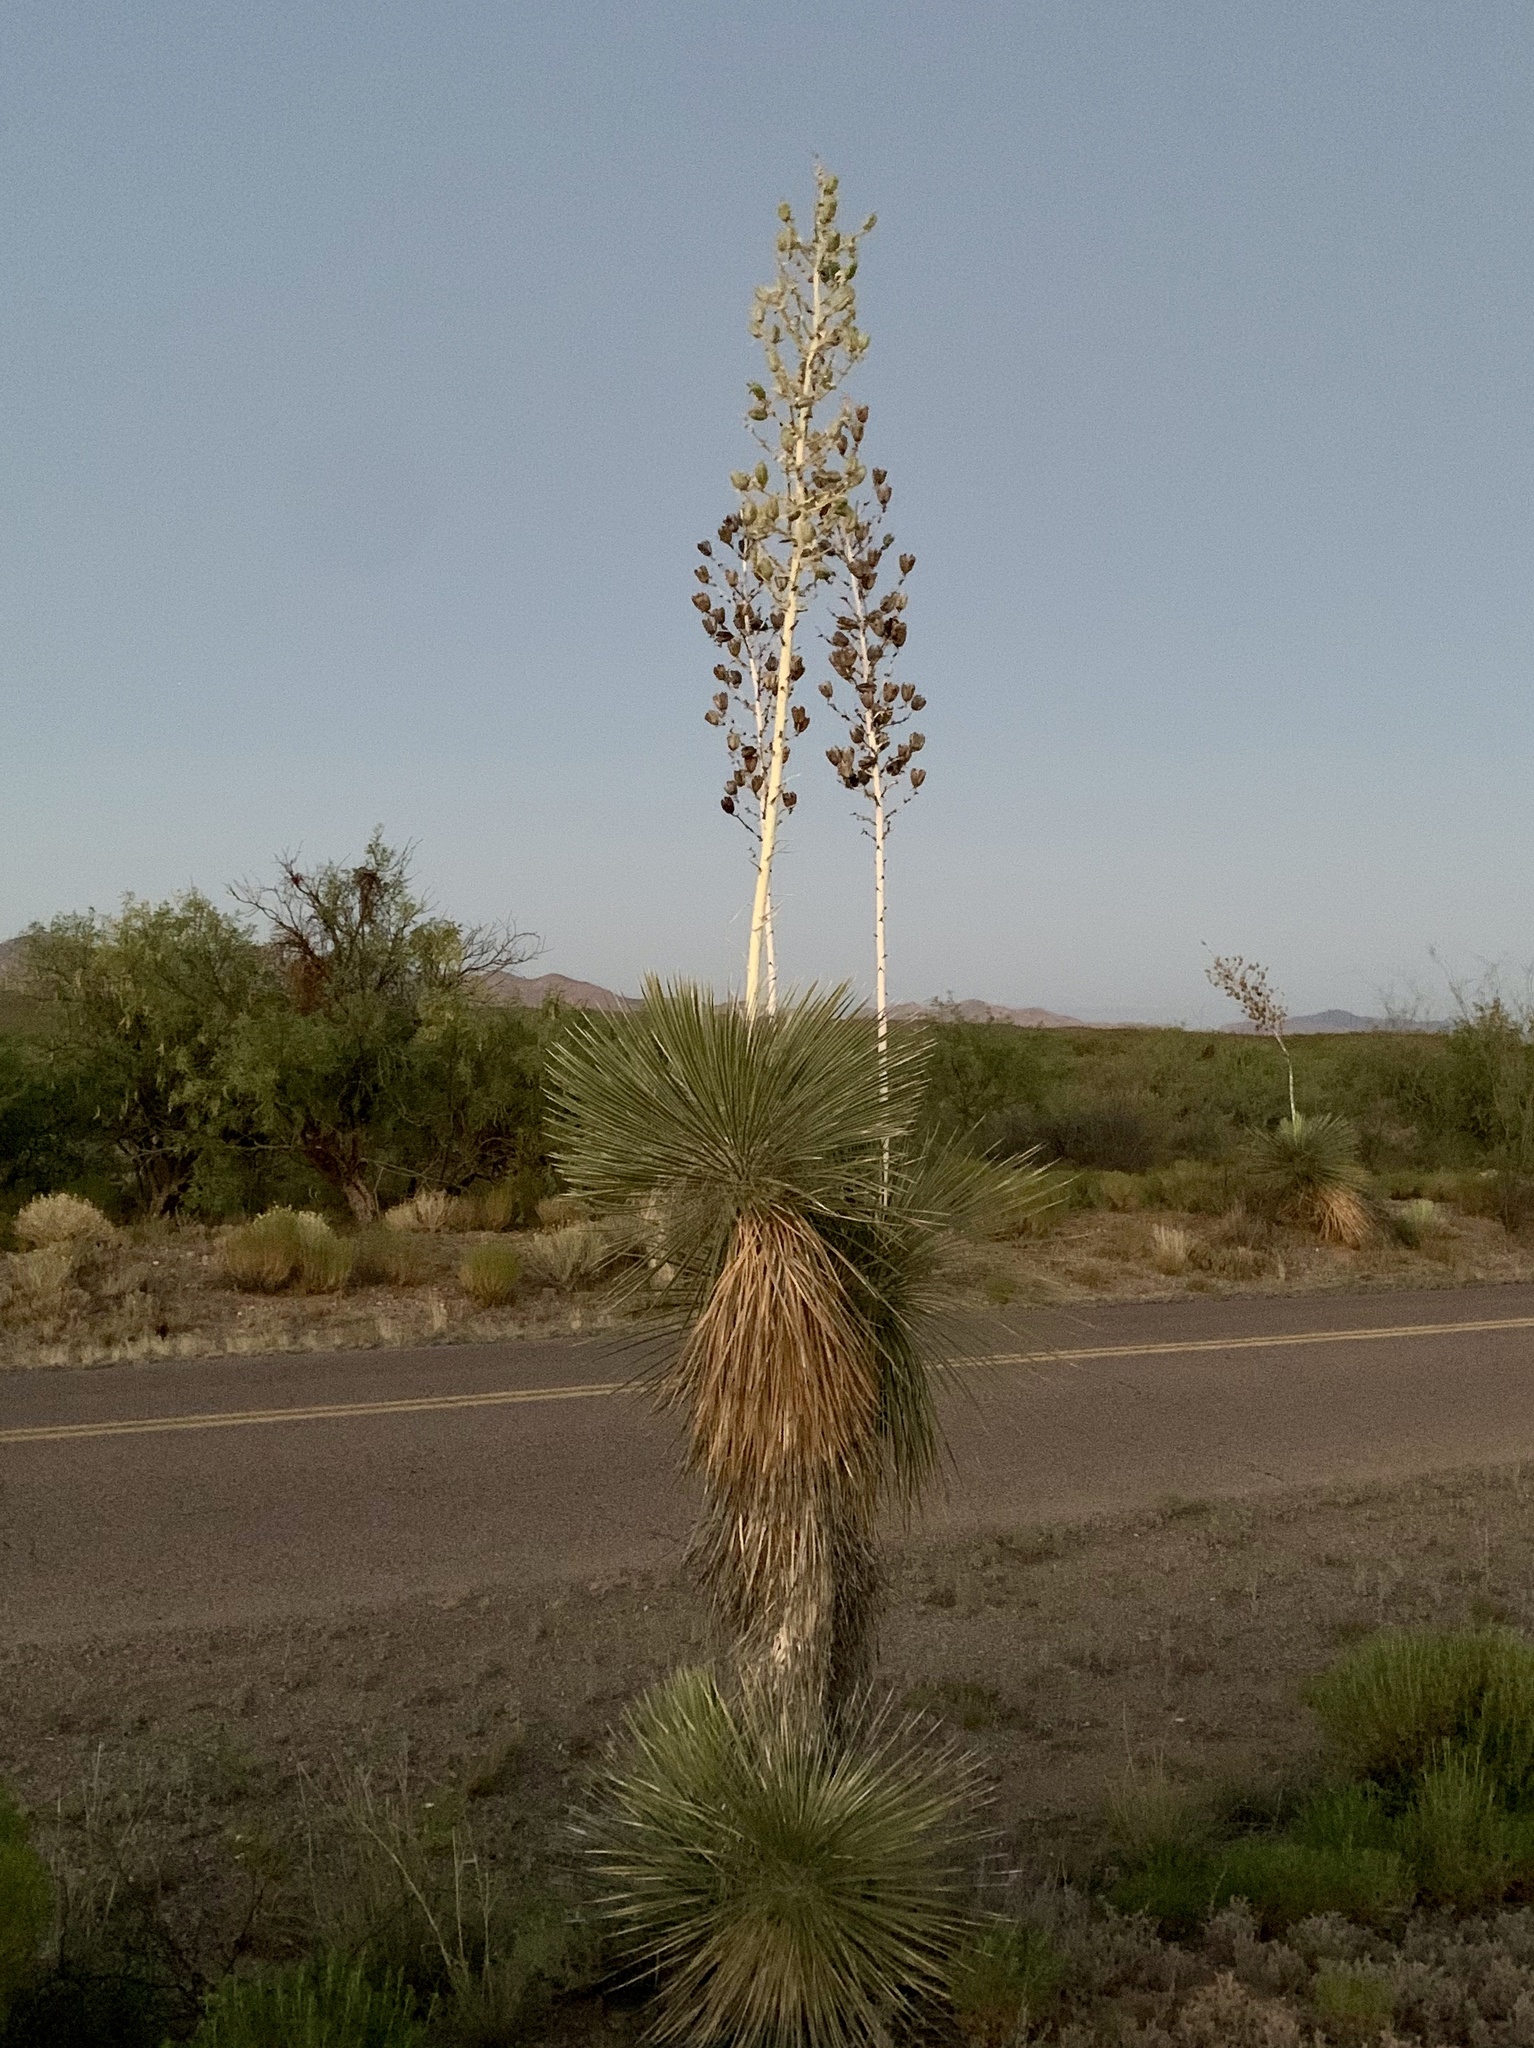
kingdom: Plantae
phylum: Tracheophyta
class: Liliopsida
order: Asparagales
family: Asparagaceae
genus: Yucca
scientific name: Yucca elata
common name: Palmella
